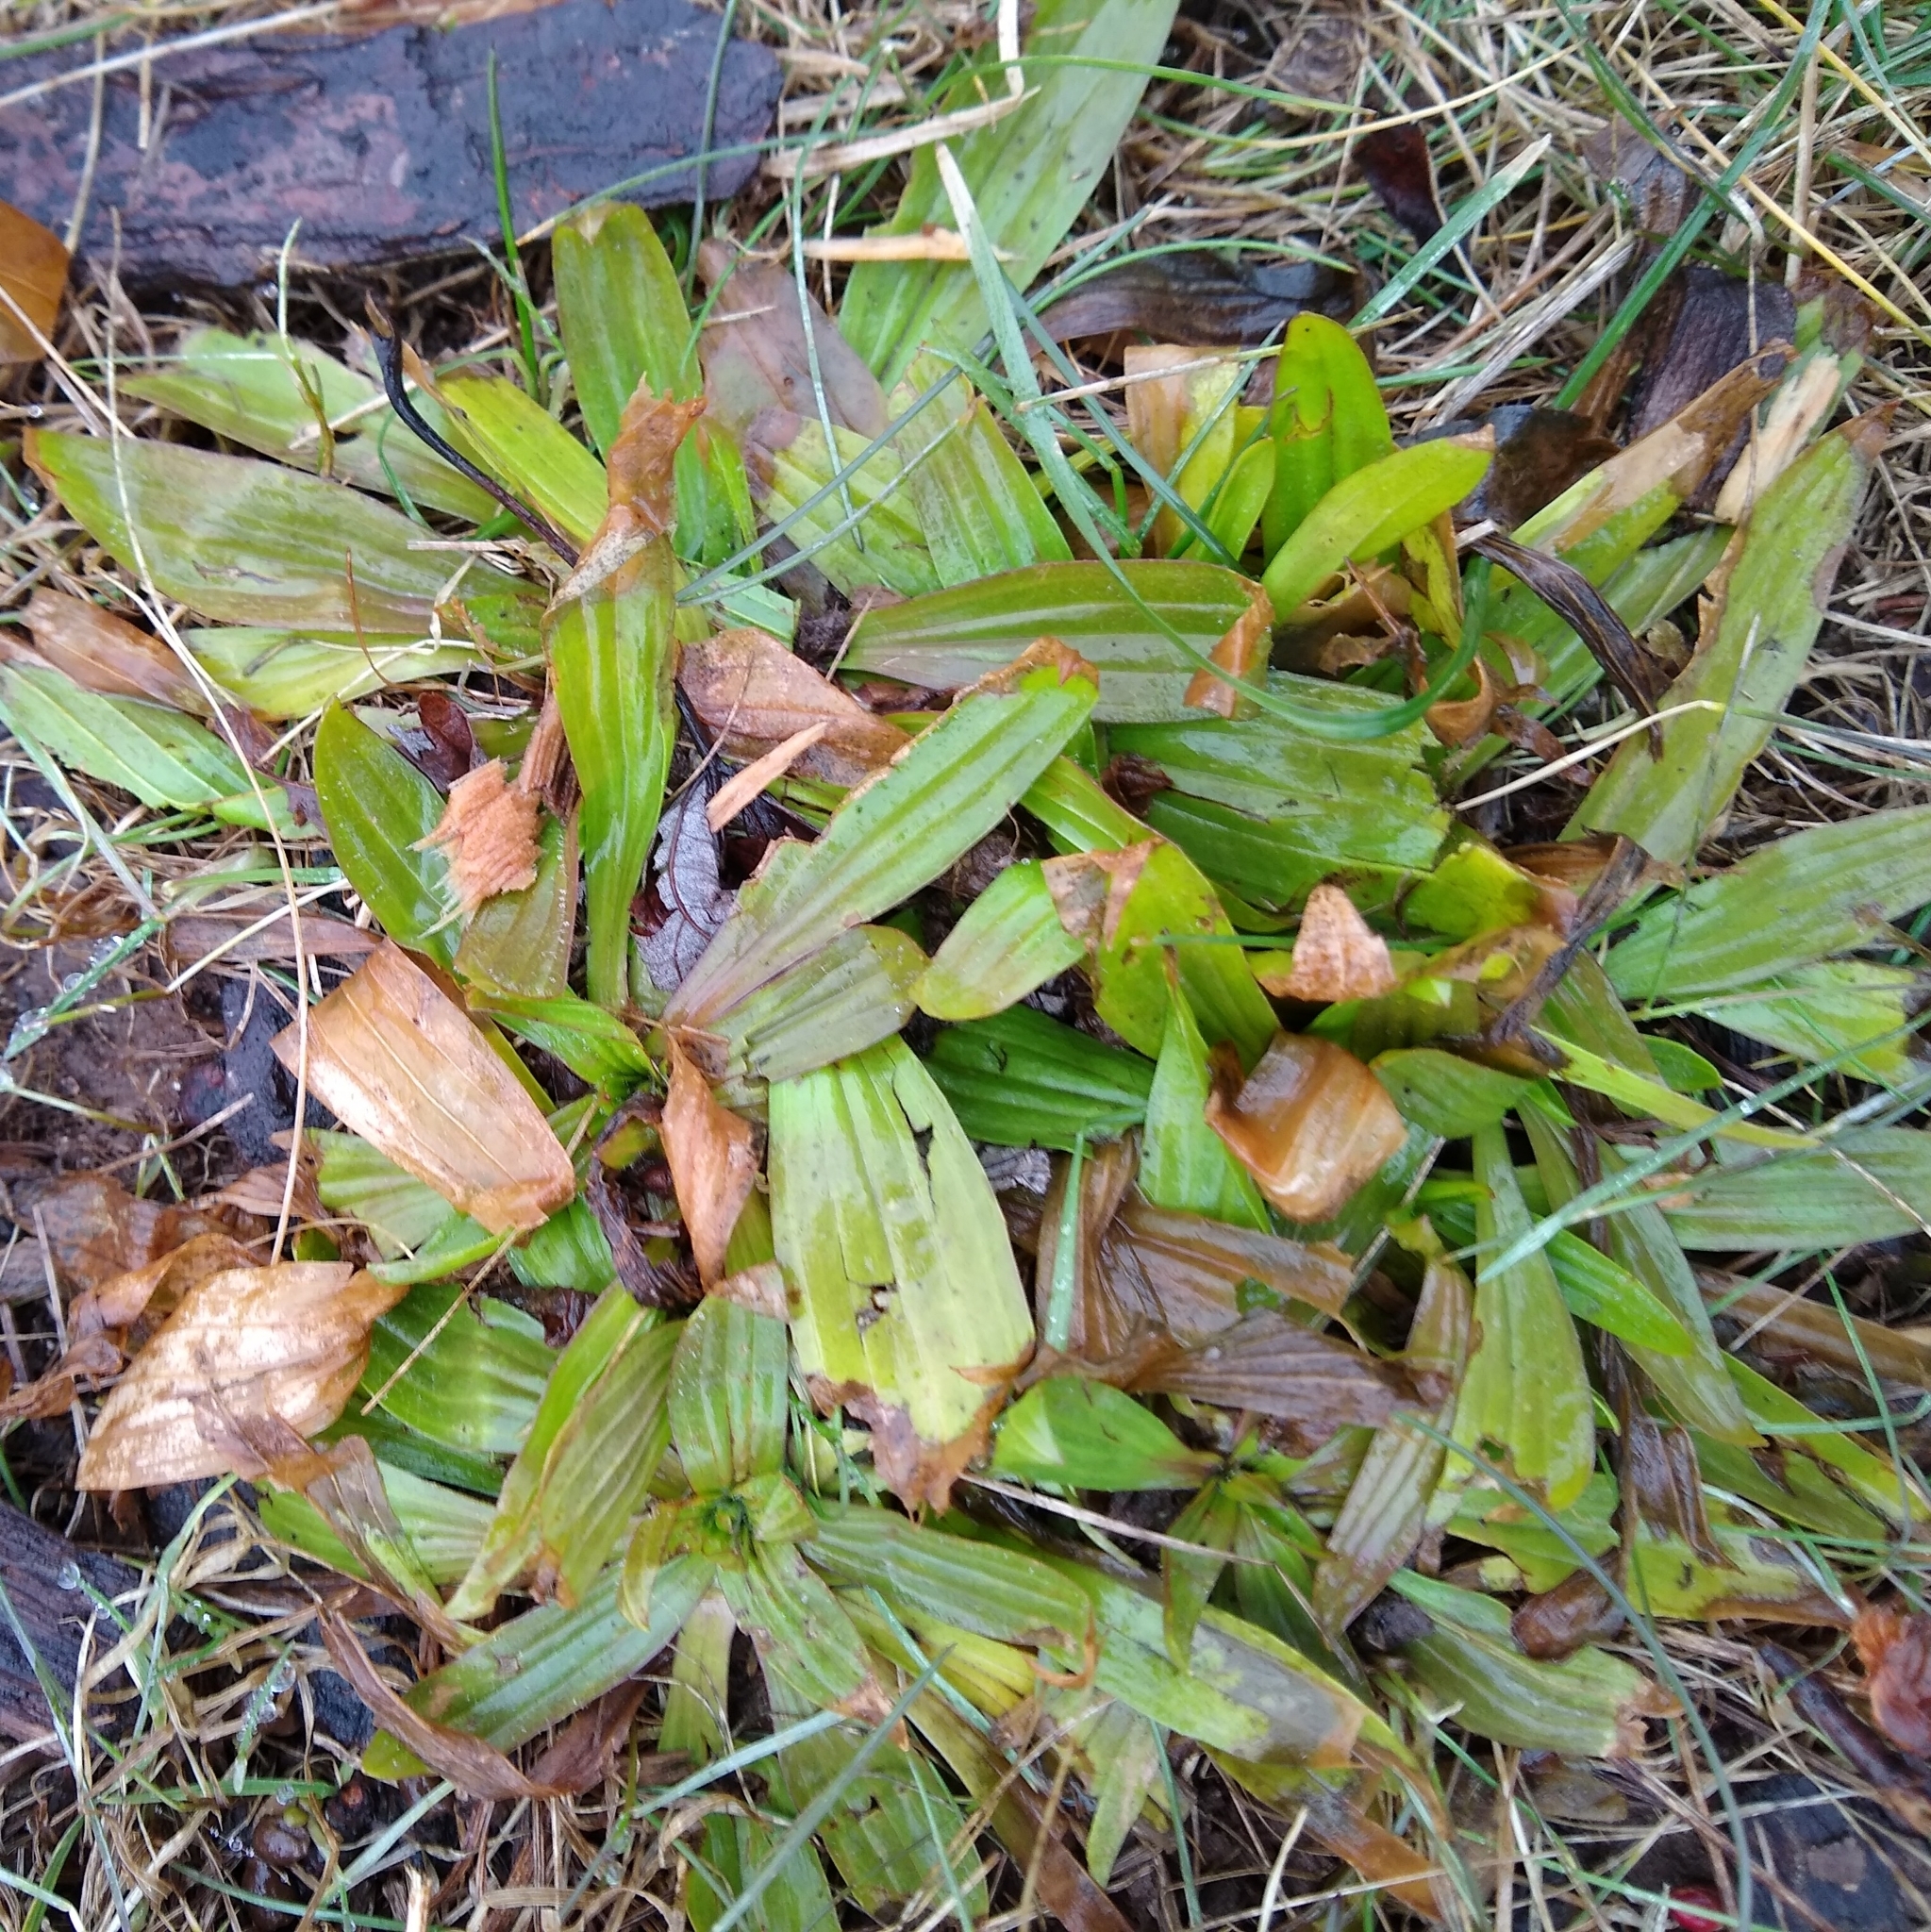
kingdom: Plantae
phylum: Tracheophyta
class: Magnoliopsida
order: Lamiales
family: Plantaginaceae
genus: Plantago
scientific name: Plantago lanceolata
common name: Ribwort plantain
